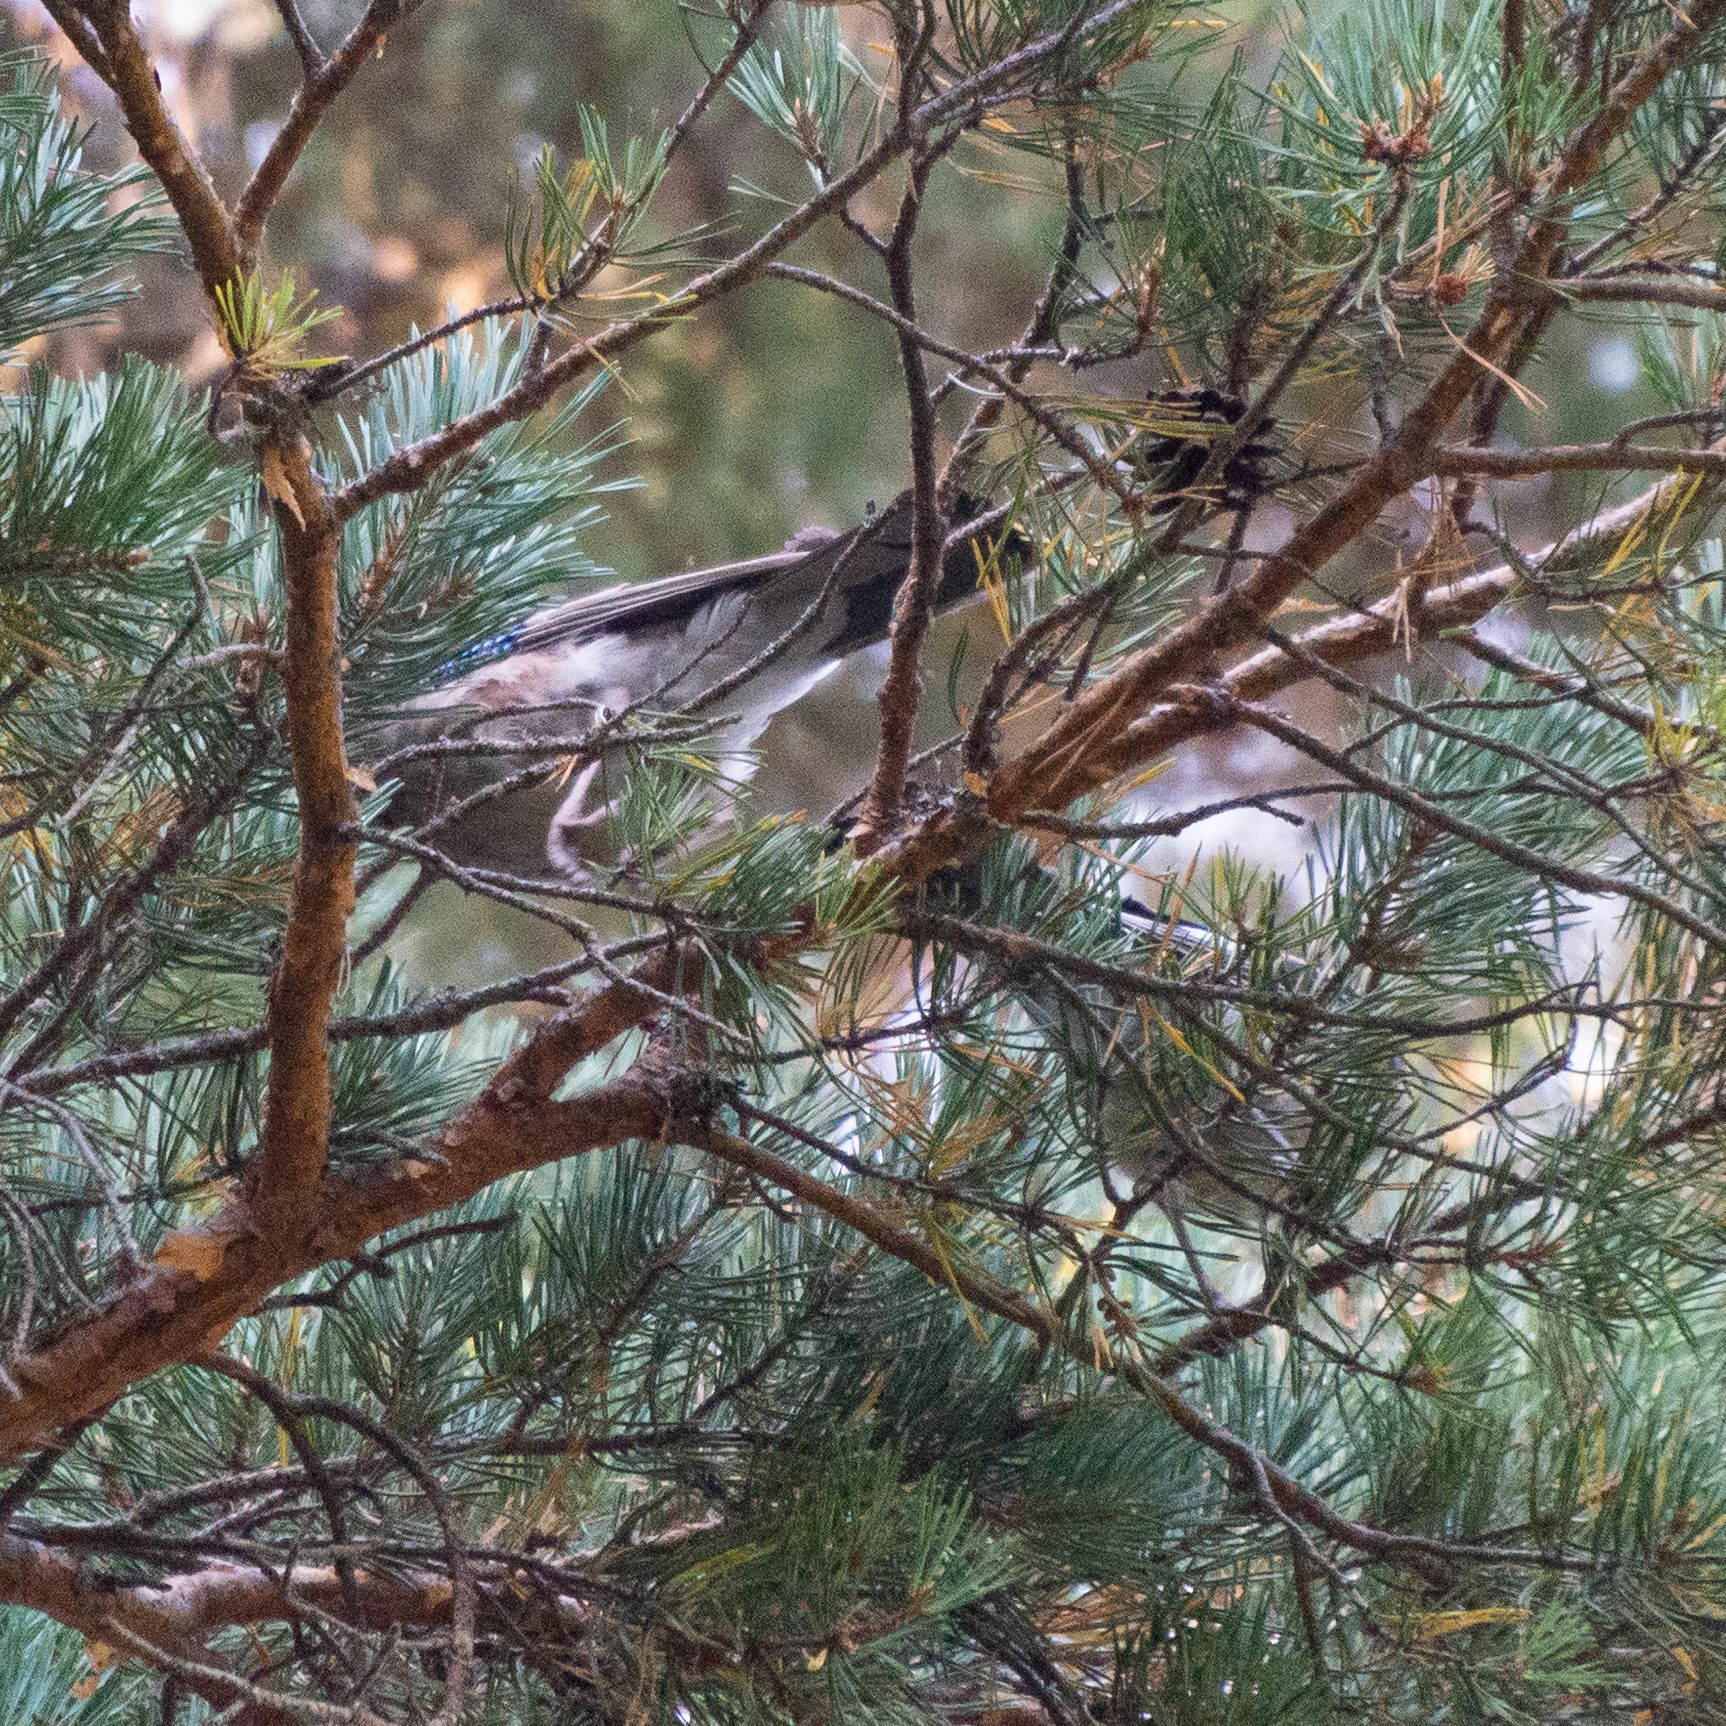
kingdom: Animalia
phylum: Chordata
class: Aves
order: Passeriformes
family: Corvidae
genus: Garrulus
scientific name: Garrulus glandarius
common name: Eurasian jay
